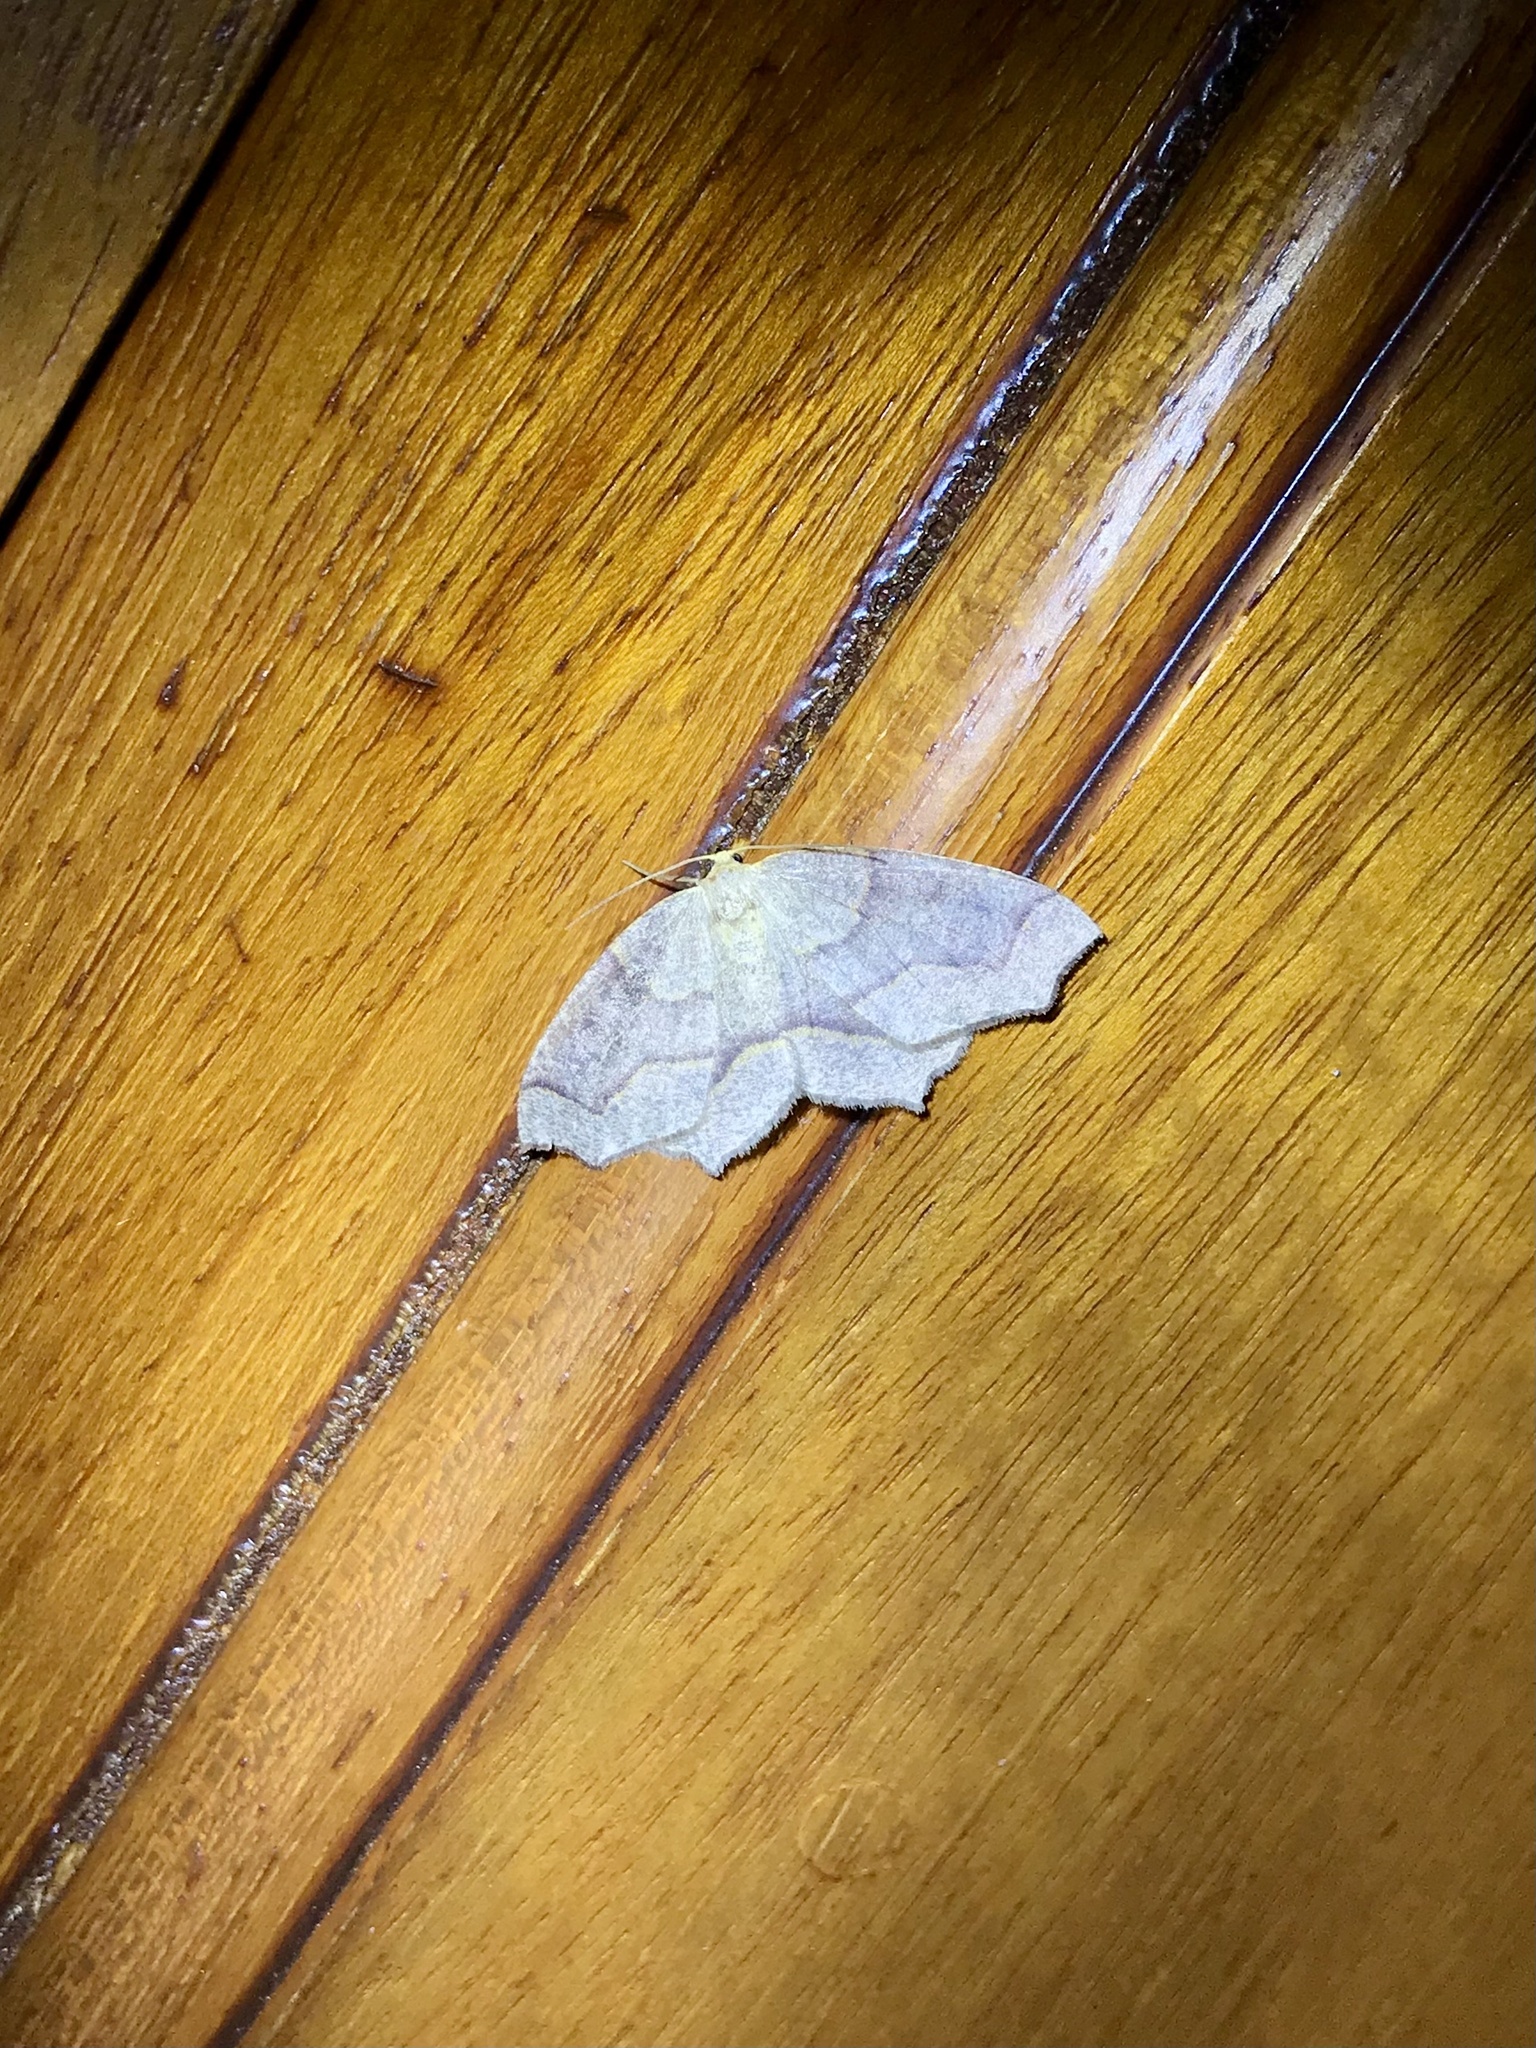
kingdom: Animalia
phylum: Arthropoda
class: Insecta
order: Lepidoptera
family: Geometridae
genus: Lambdina
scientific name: Lambdina fiscellaria
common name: Hemlock looper
